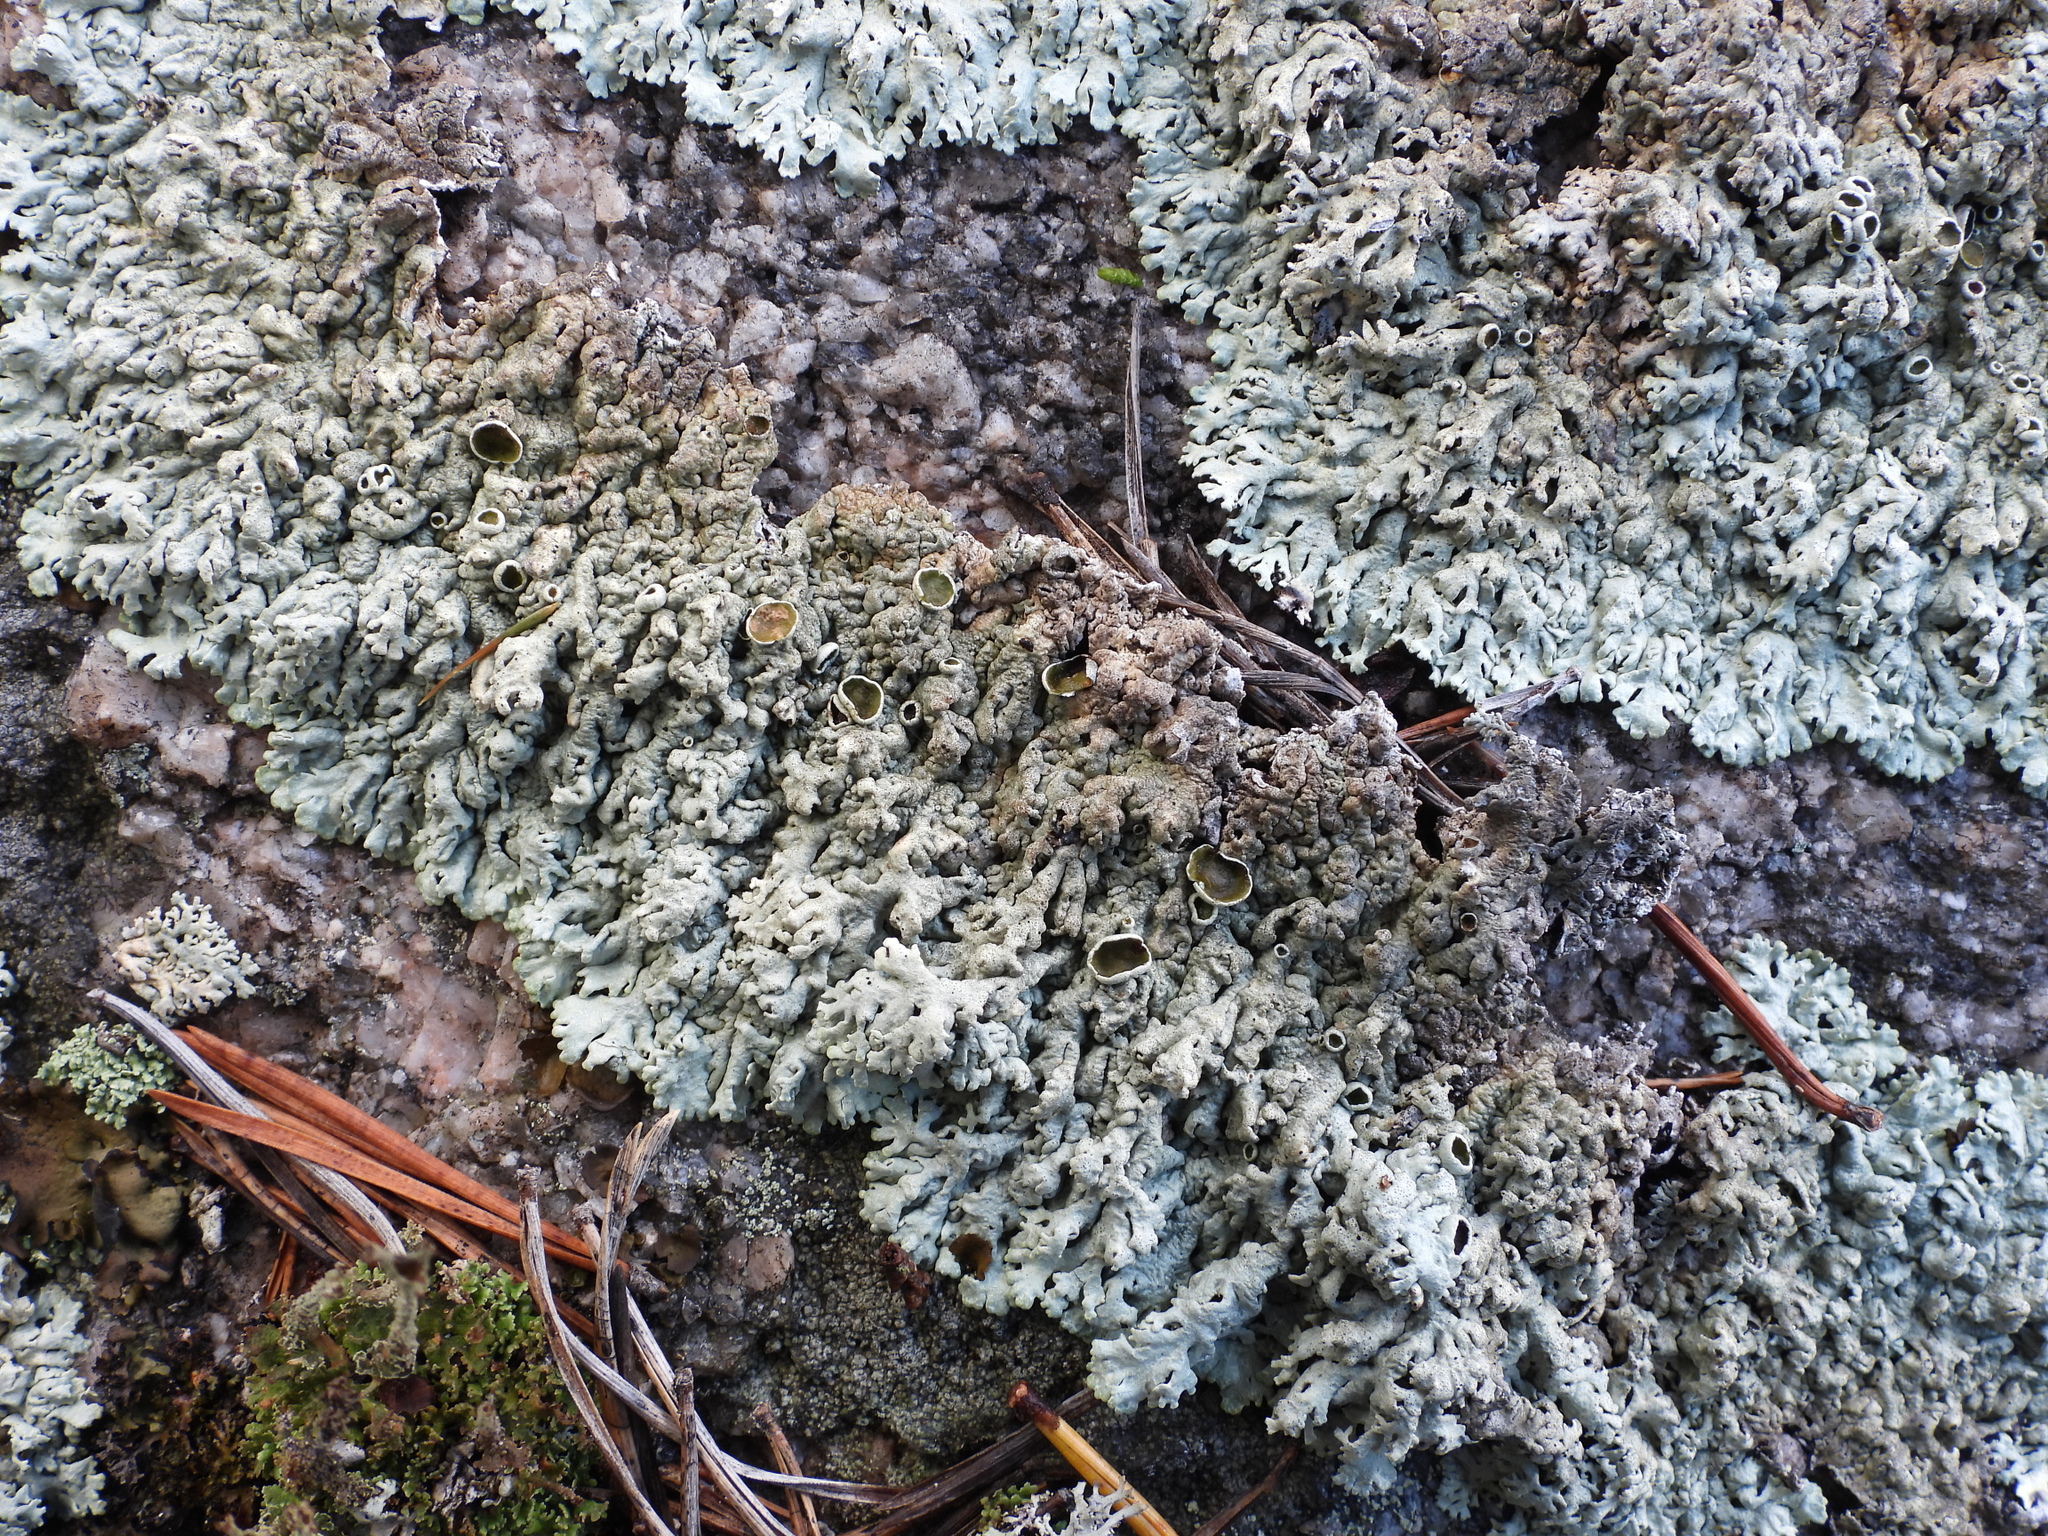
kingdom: Fungi
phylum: Ascomycota
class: Lecanoromycetes
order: Lecanorales
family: Parmeliaceae
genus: Arctoparmelia
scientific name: Arctoparmelia centrifuga
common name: Concentric ring lichen
